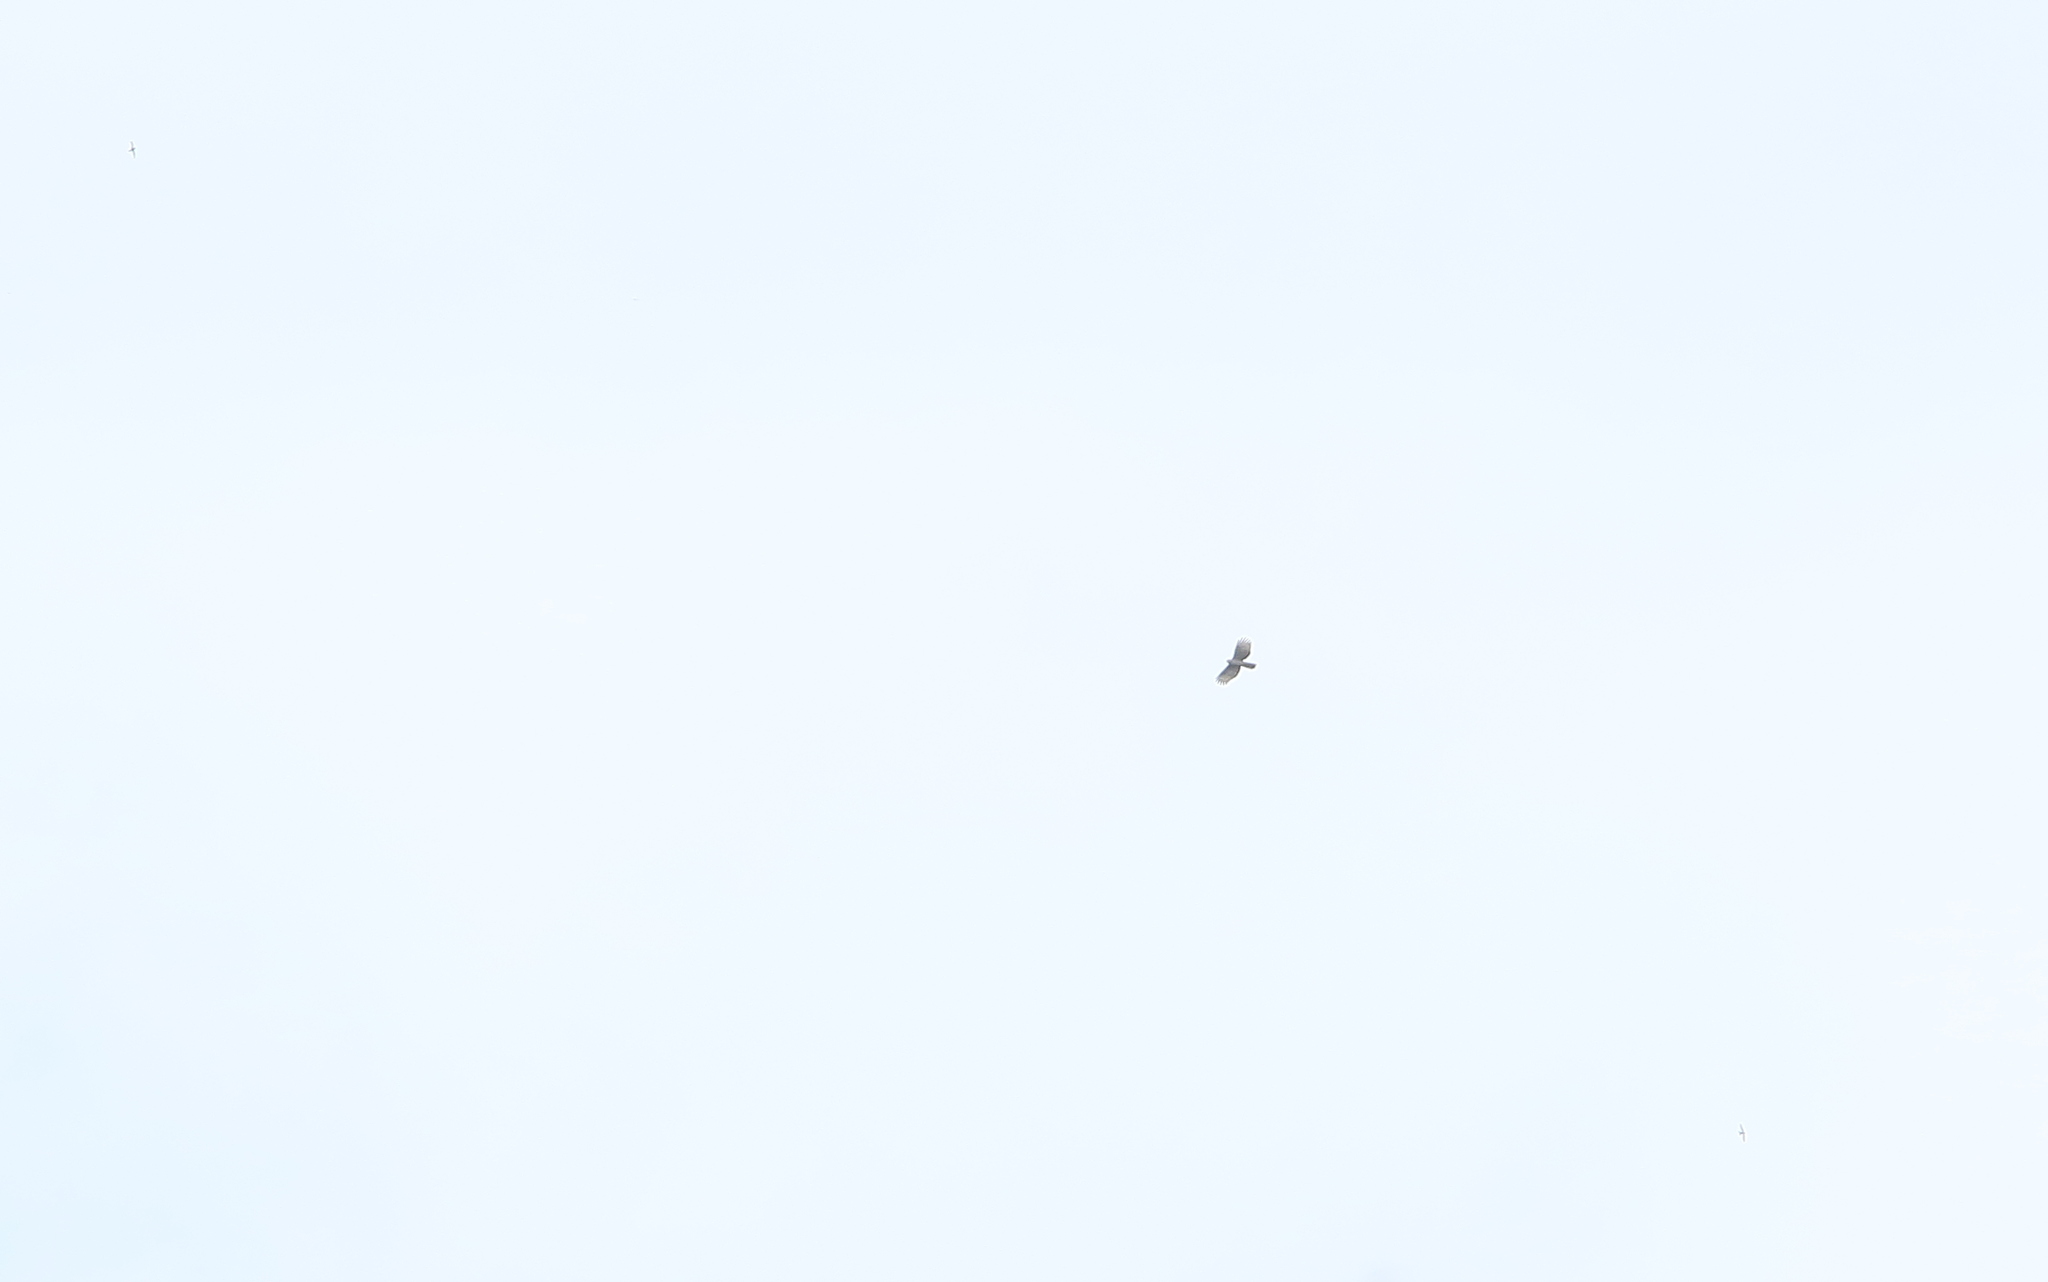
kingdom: Animalia
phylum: Chordata
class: Aves
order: Accipitriformes
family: Accipitridae
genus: Aviceda
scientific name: Aviceda jerdoni
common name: Jerdon's baza
